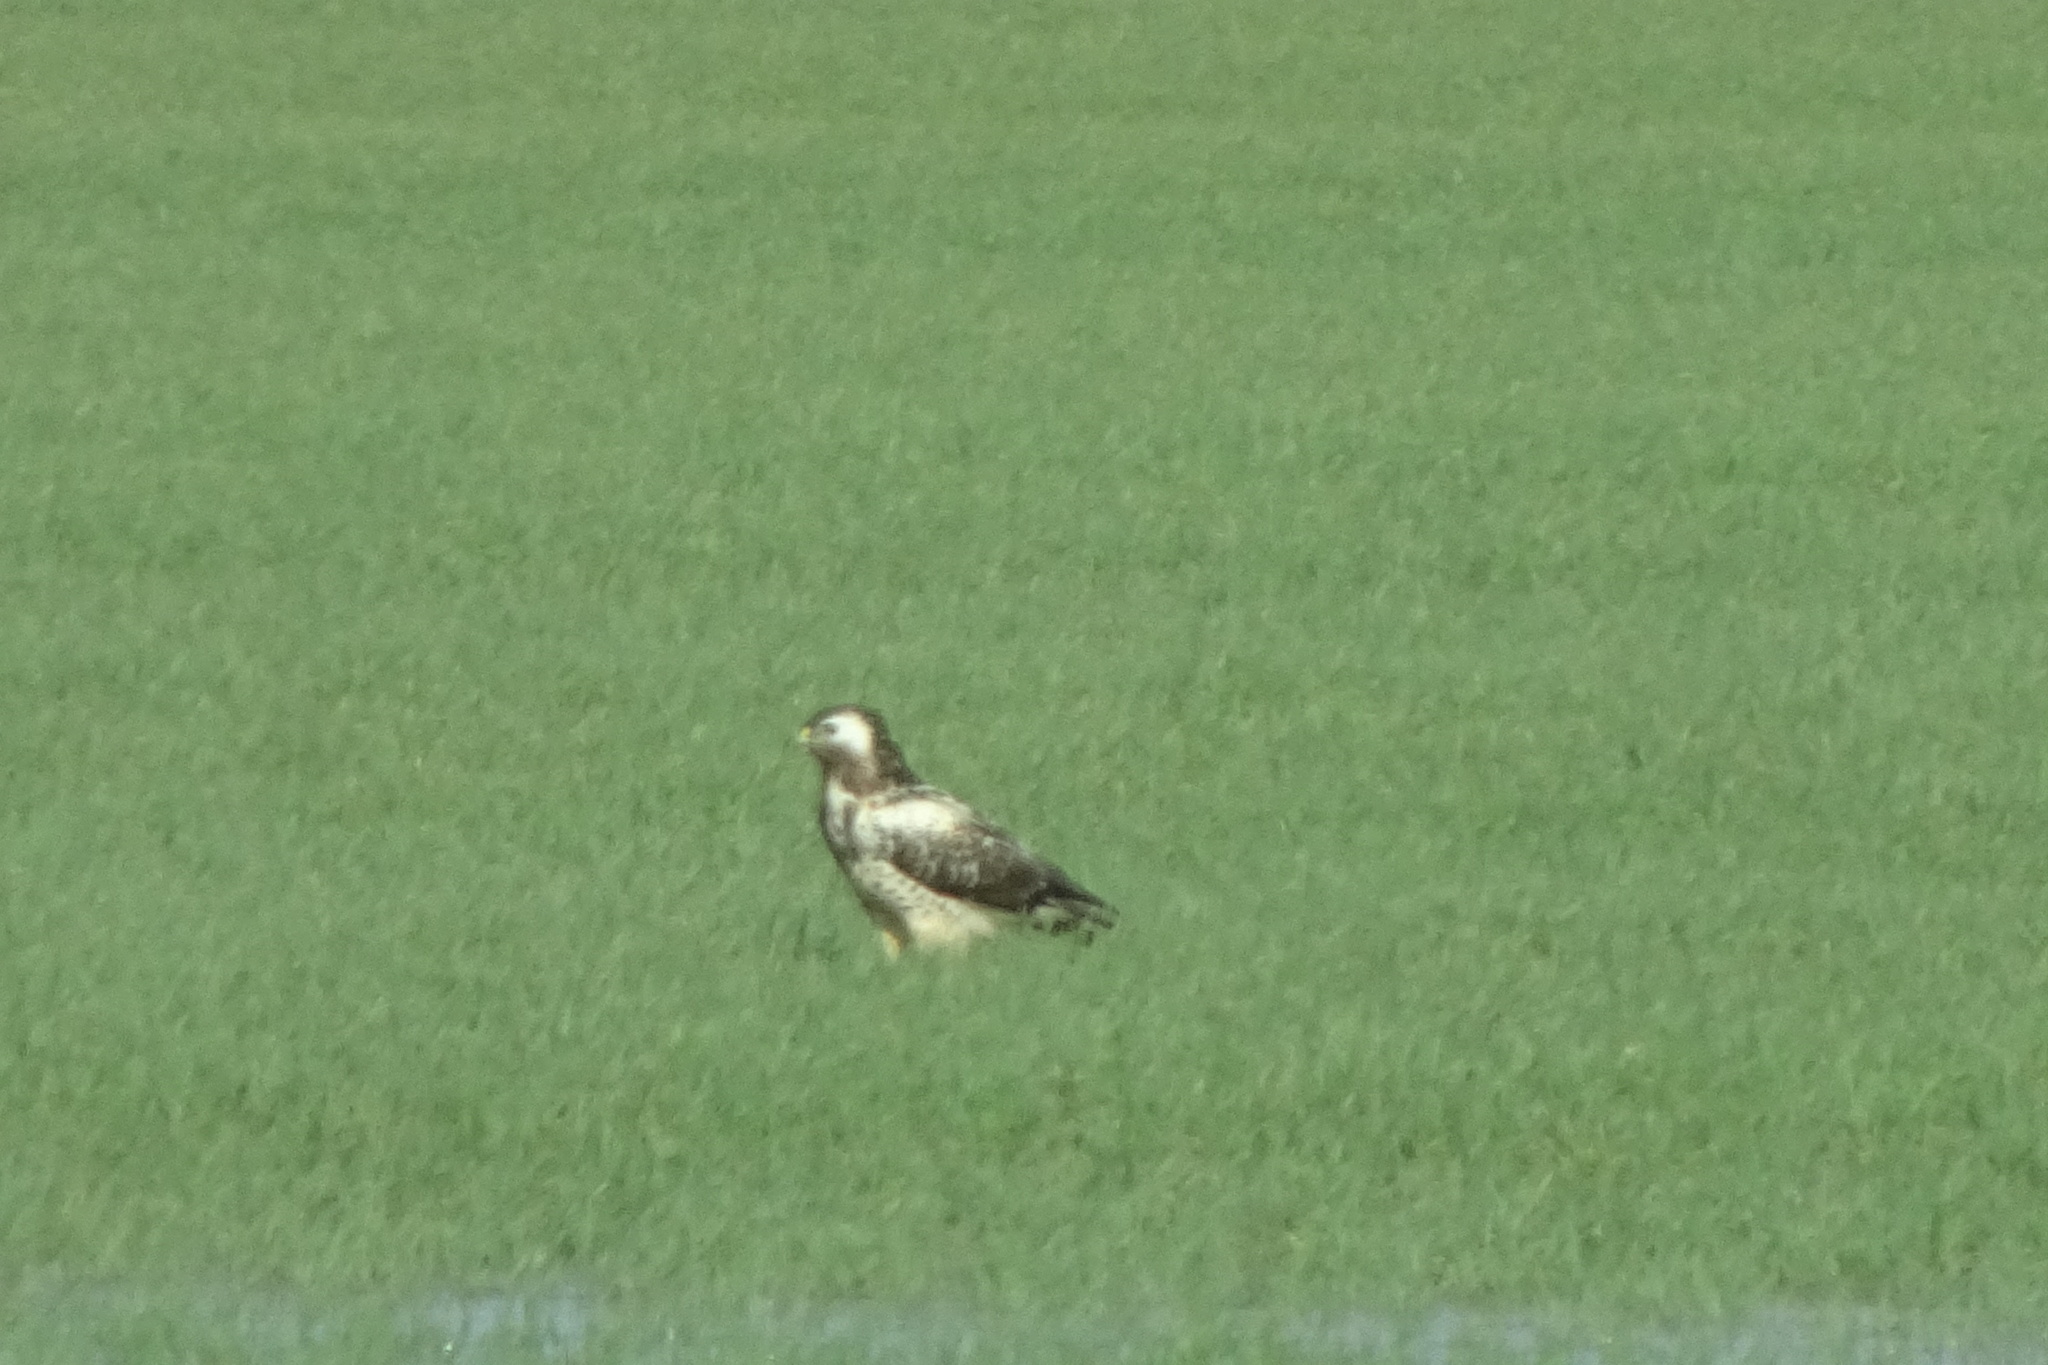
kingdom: Animalia
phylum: Chordata
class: Aves
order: Accipitriformes
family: Accipitridae
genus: Buteo
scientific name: Buteo buteo
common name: Common buzzard
